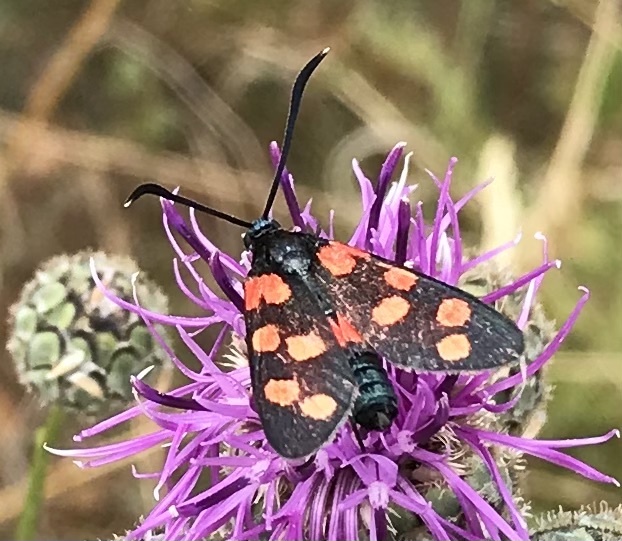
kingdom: Animalia
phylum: Arthropoda
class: Insecta
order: Lepidoptera
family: Zygaenidae
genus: Zygaena
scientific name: Zygaena transalpina
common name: Southern six spot burnet
